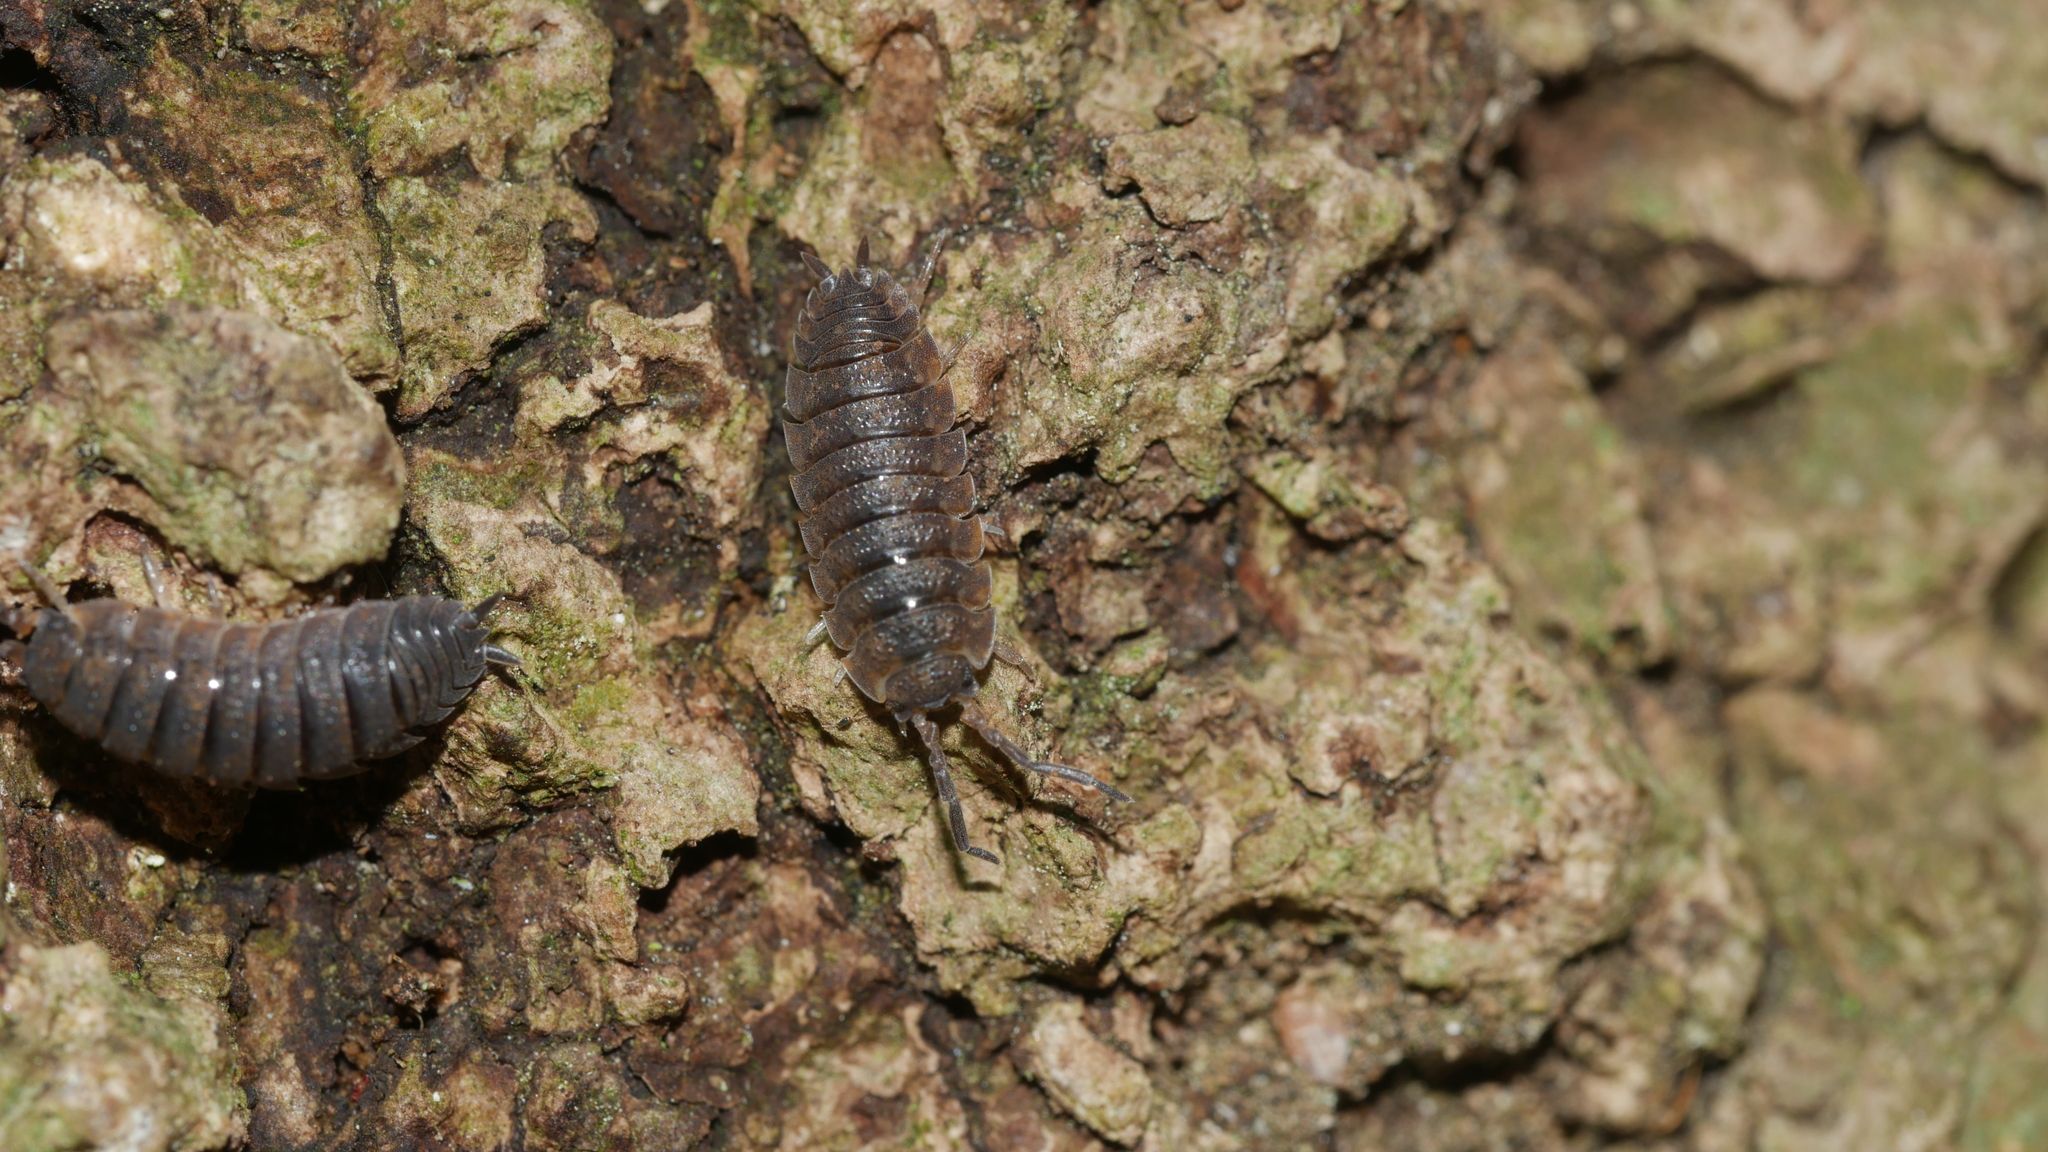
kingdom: Animalia
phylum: Arthropoda
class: Malacostraca
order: Isopoda
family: Porcellionidae
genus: Porcellio
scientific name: Porcellio scaber
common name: Common rough woodlouse
